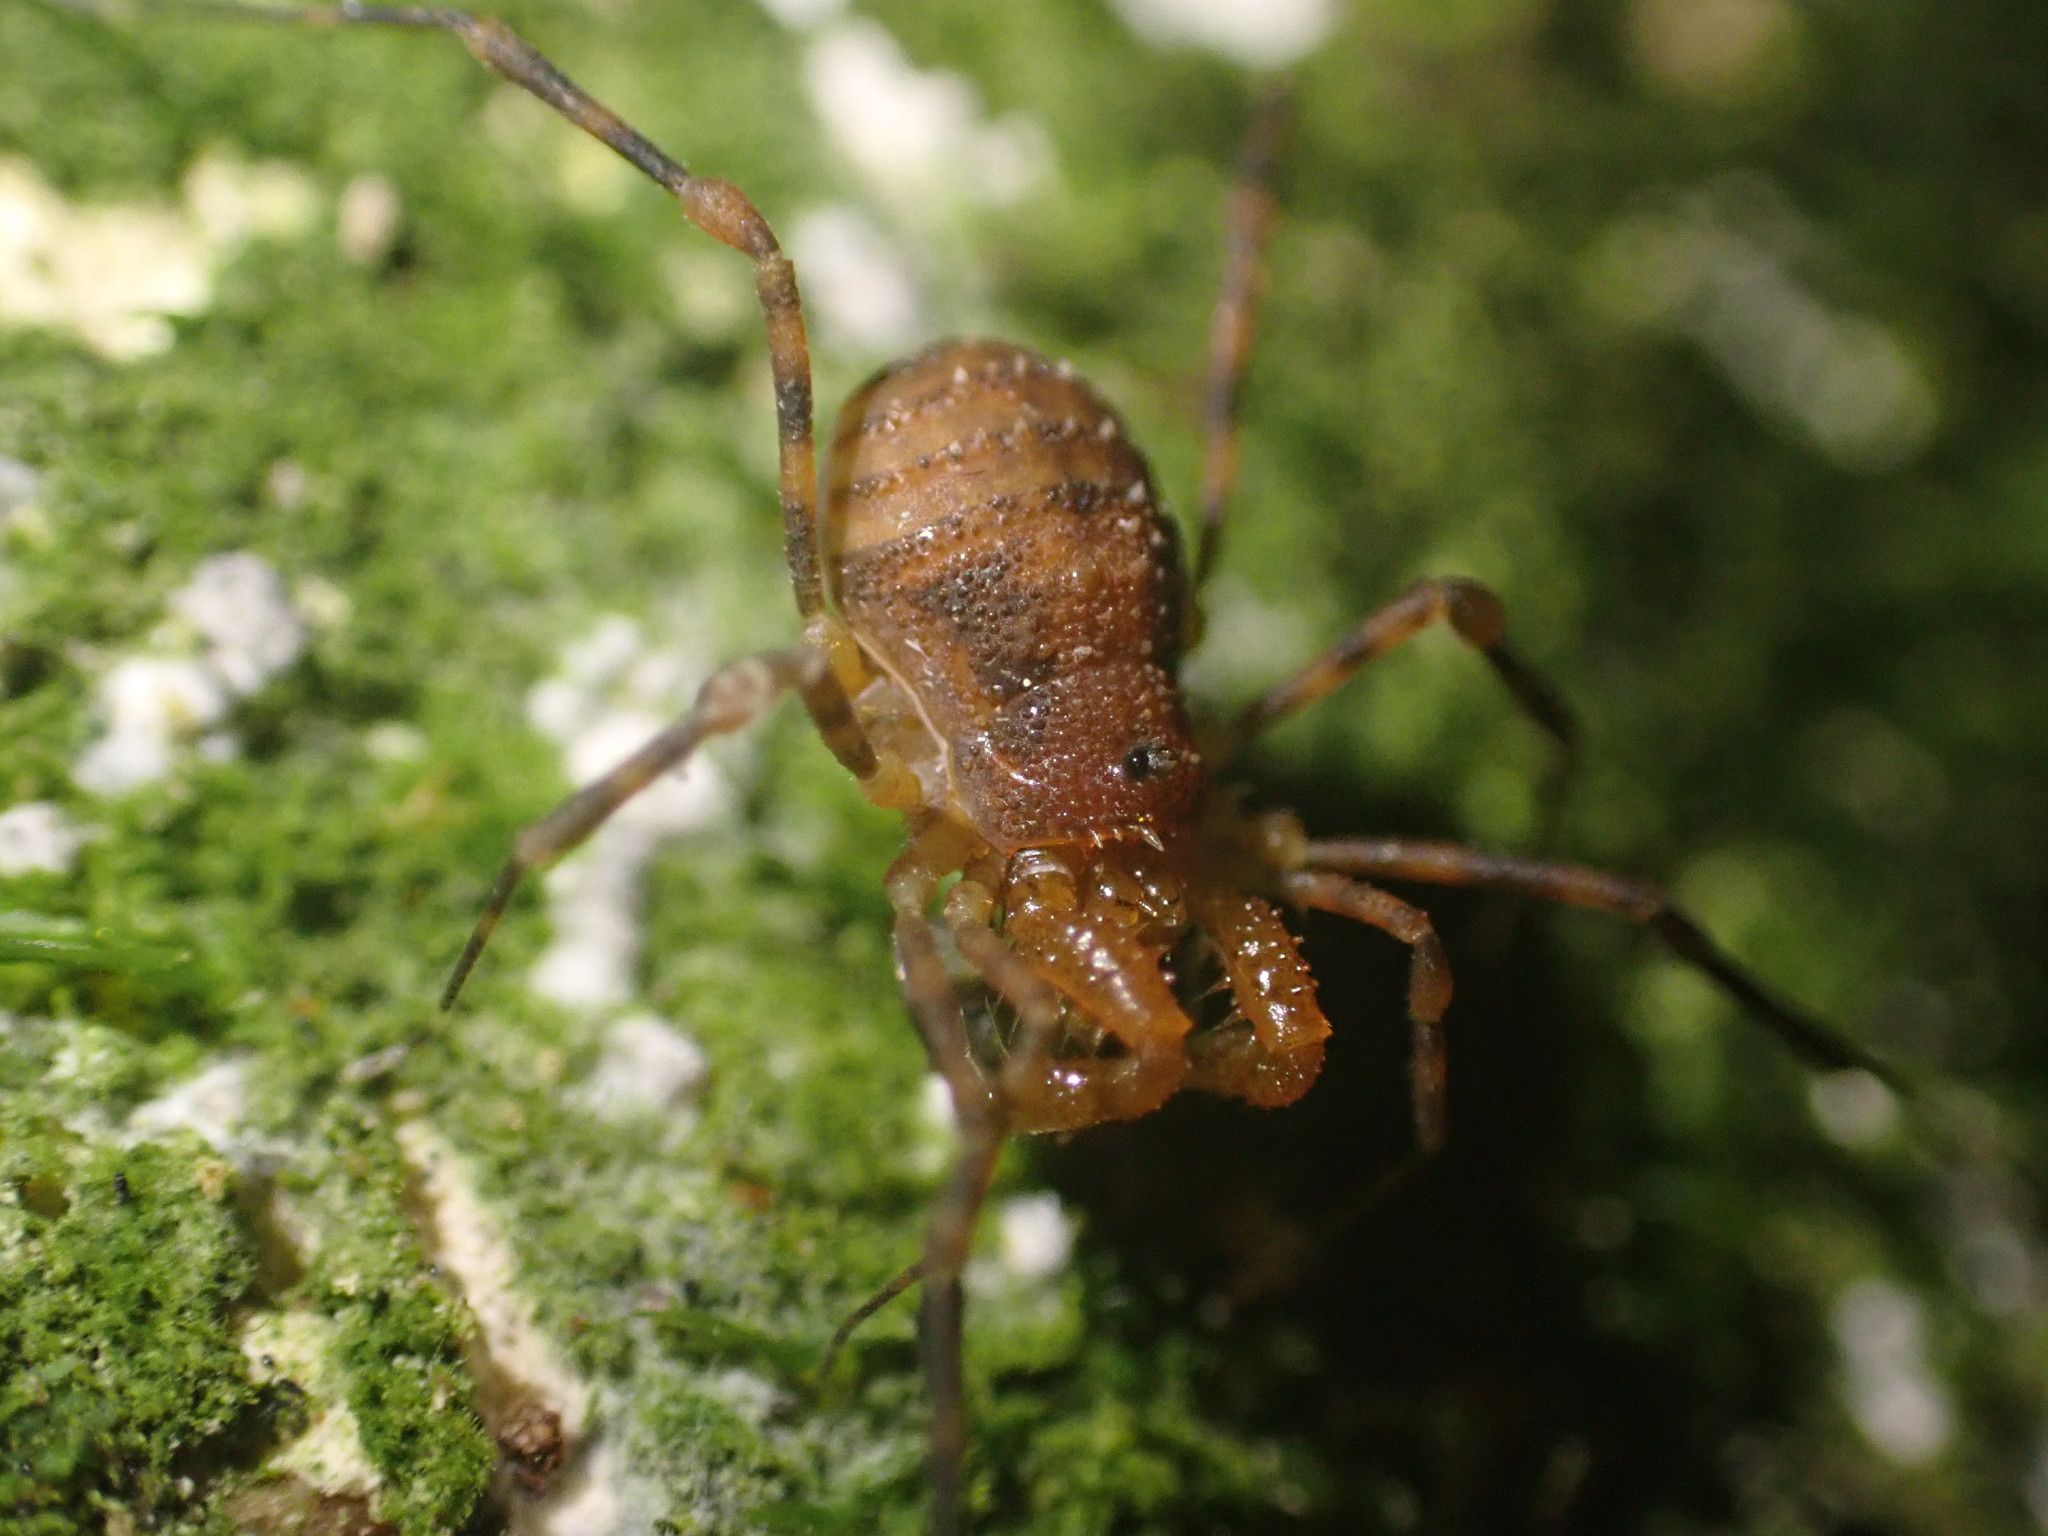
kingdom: Animalia
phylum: Arthropoda
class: Arachnida
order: Opiliones
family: Triaenonychidae
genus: Prasma
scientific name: Prasma tuberculata
